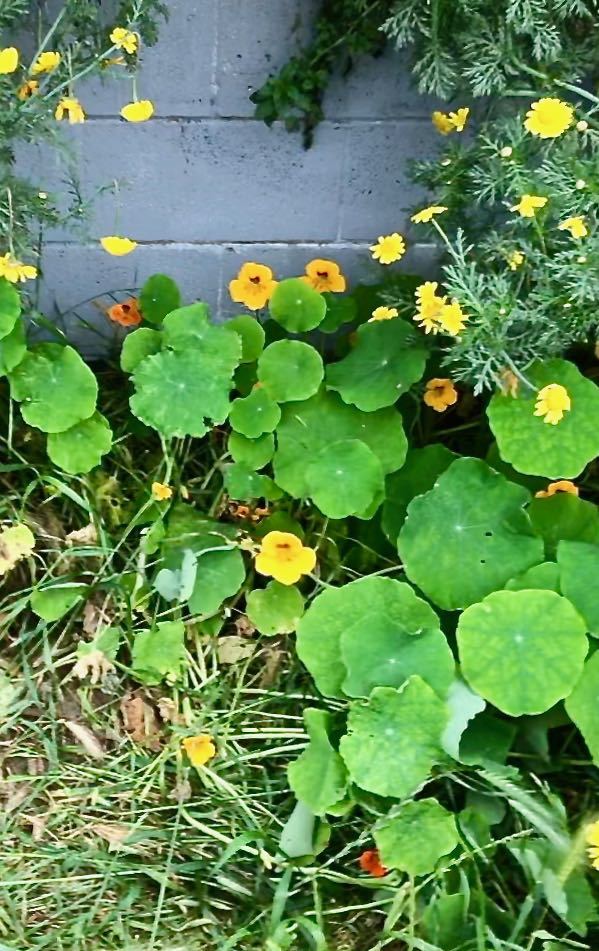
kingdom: Plantae
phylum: Tracheophyta
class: Magnoliopsida
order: Brassicales
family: Tropaeolaceae
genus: Tropaeolum
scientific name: Tropaeolum majus
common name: Nasturtium
